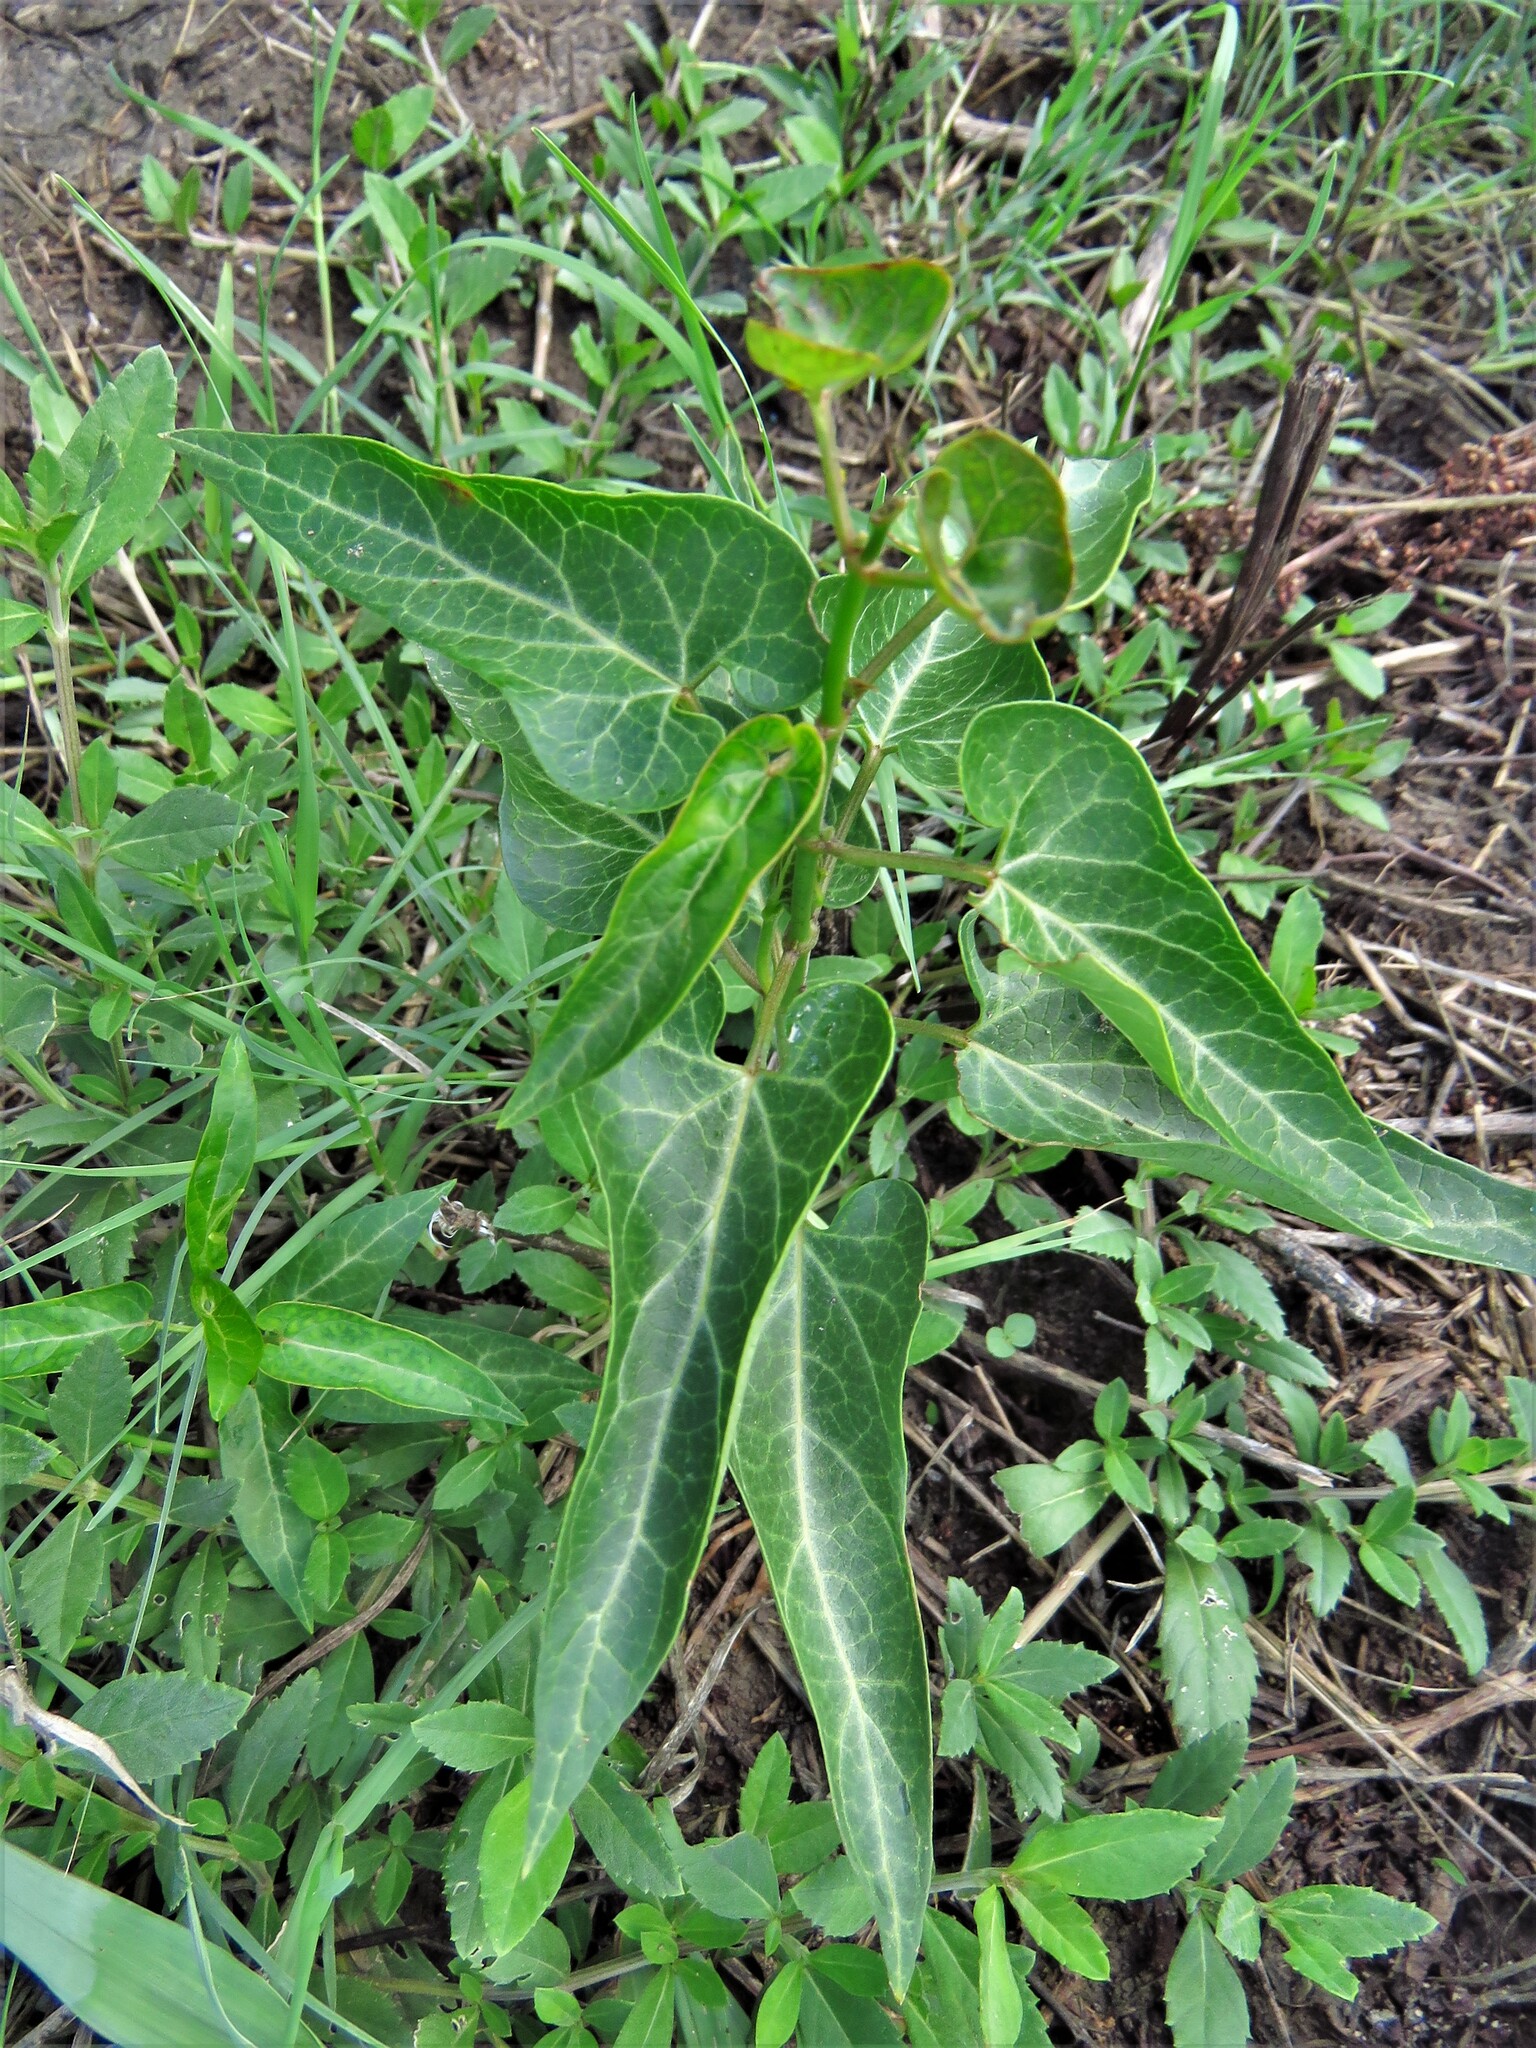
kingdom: Plantae
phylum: Tracheophyta
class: Magnoliopsida
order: Gentianales
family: Apocynaceae
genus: Cynanchum
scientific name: Cynanchum laeve
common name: Sandvine
